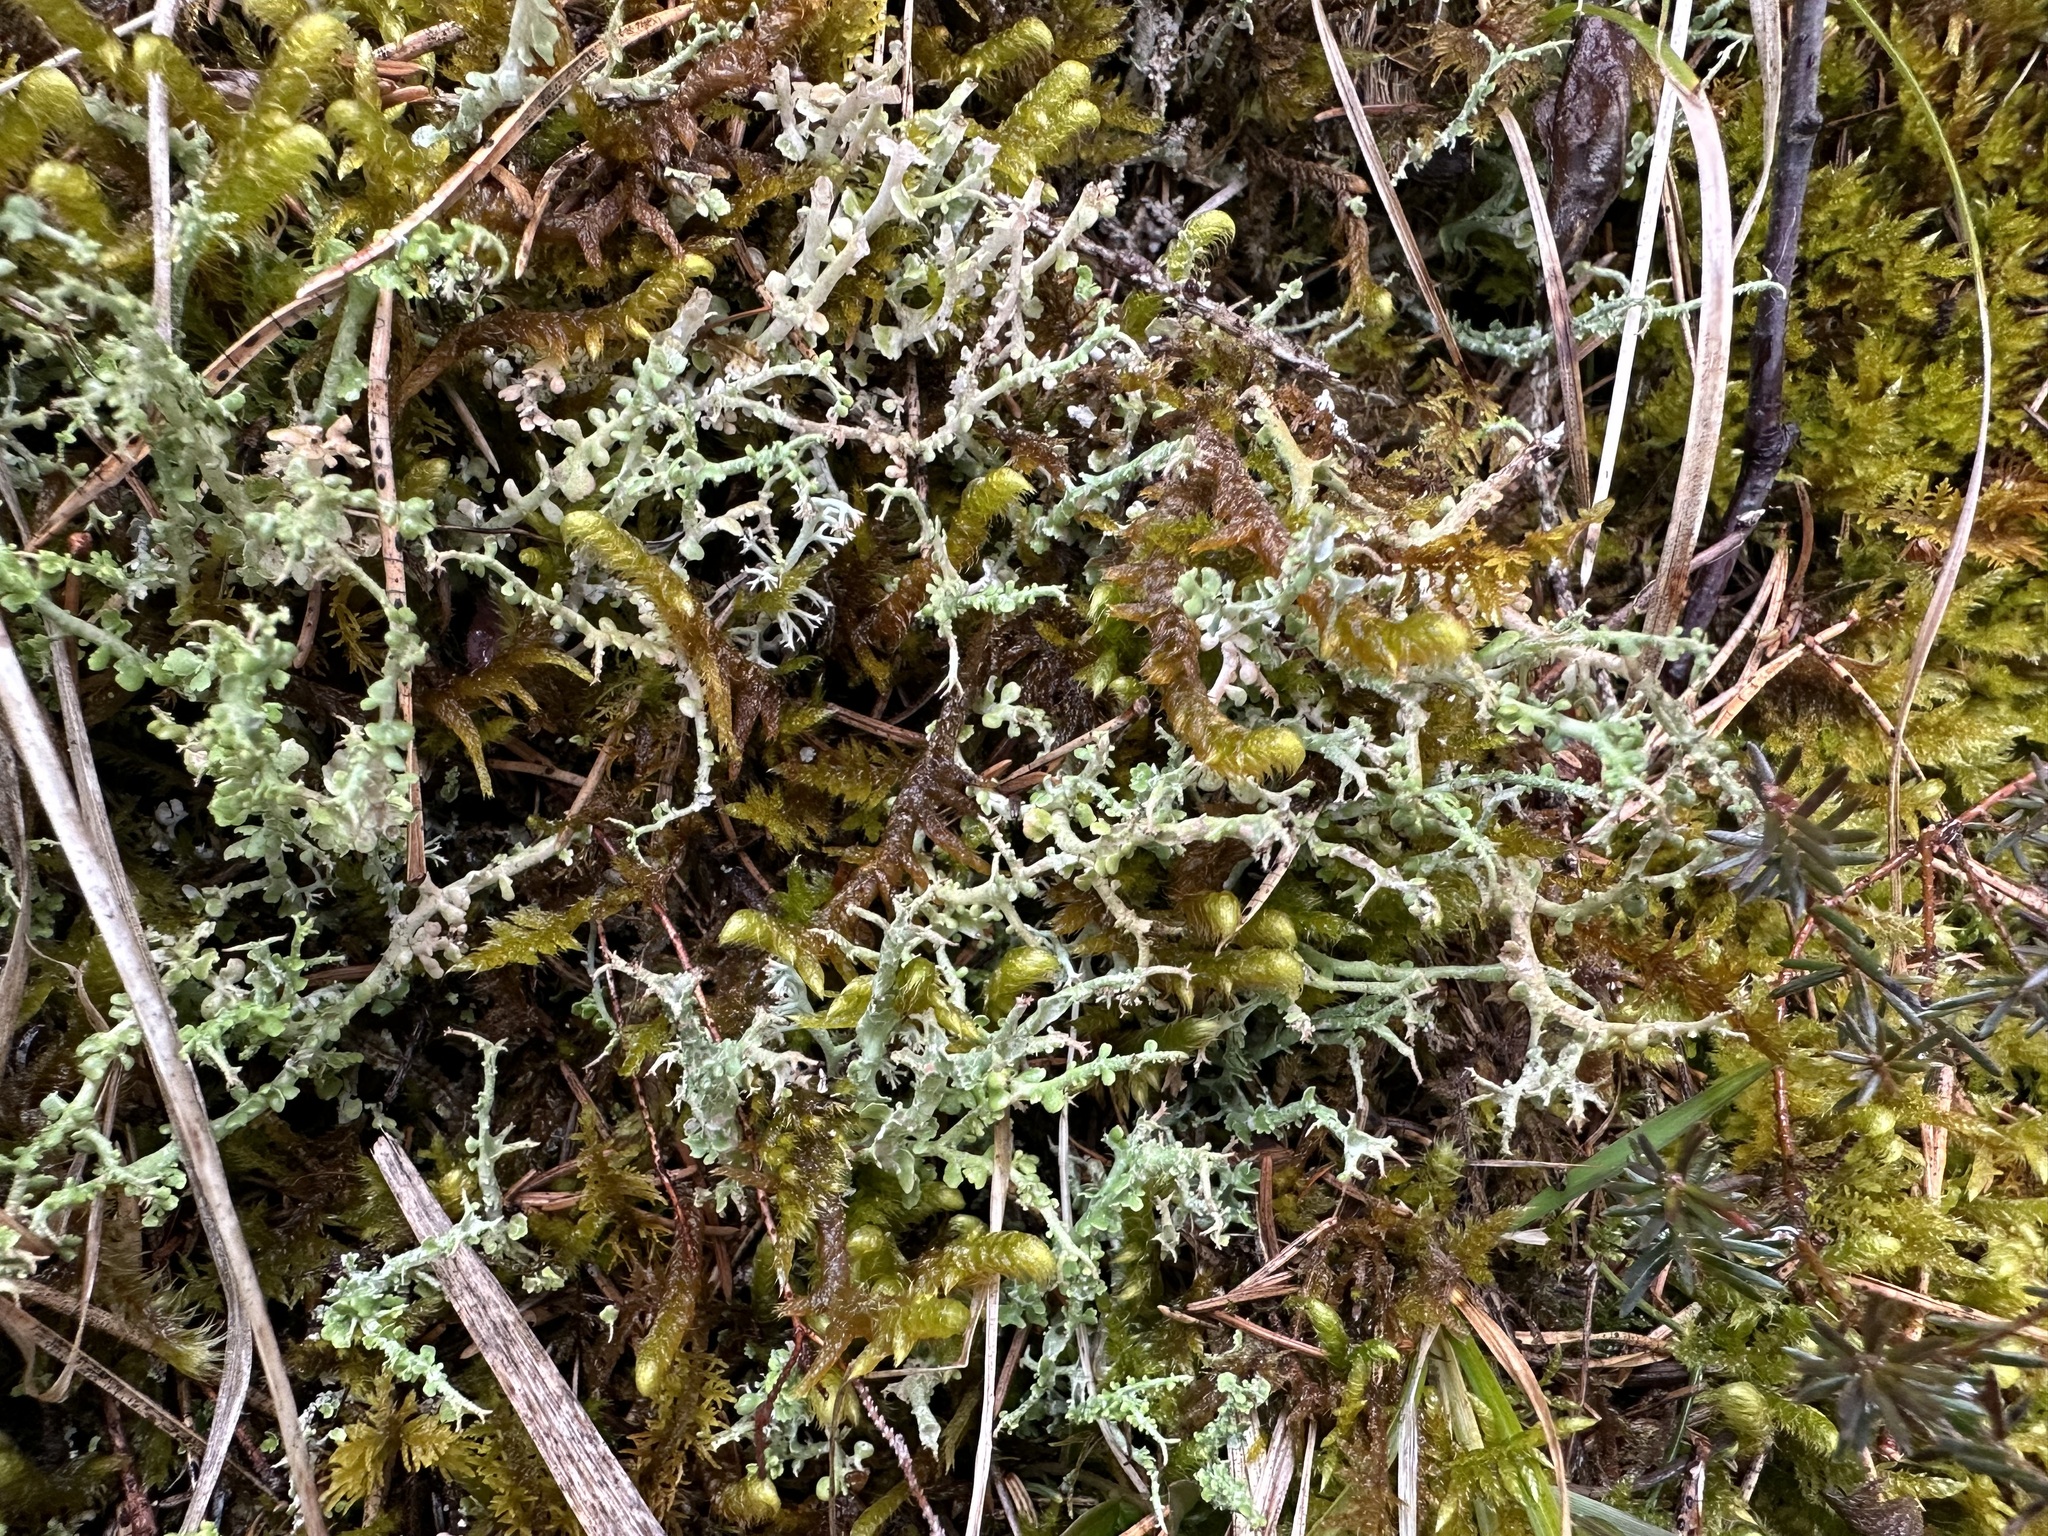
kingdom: Fungi
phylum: Ascomycota
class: Lecanoromycetes
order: Lecanorales
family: Cladoniaceae
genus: Cladonia
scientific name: Cladonia furcata
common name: Many-forked cladonia
